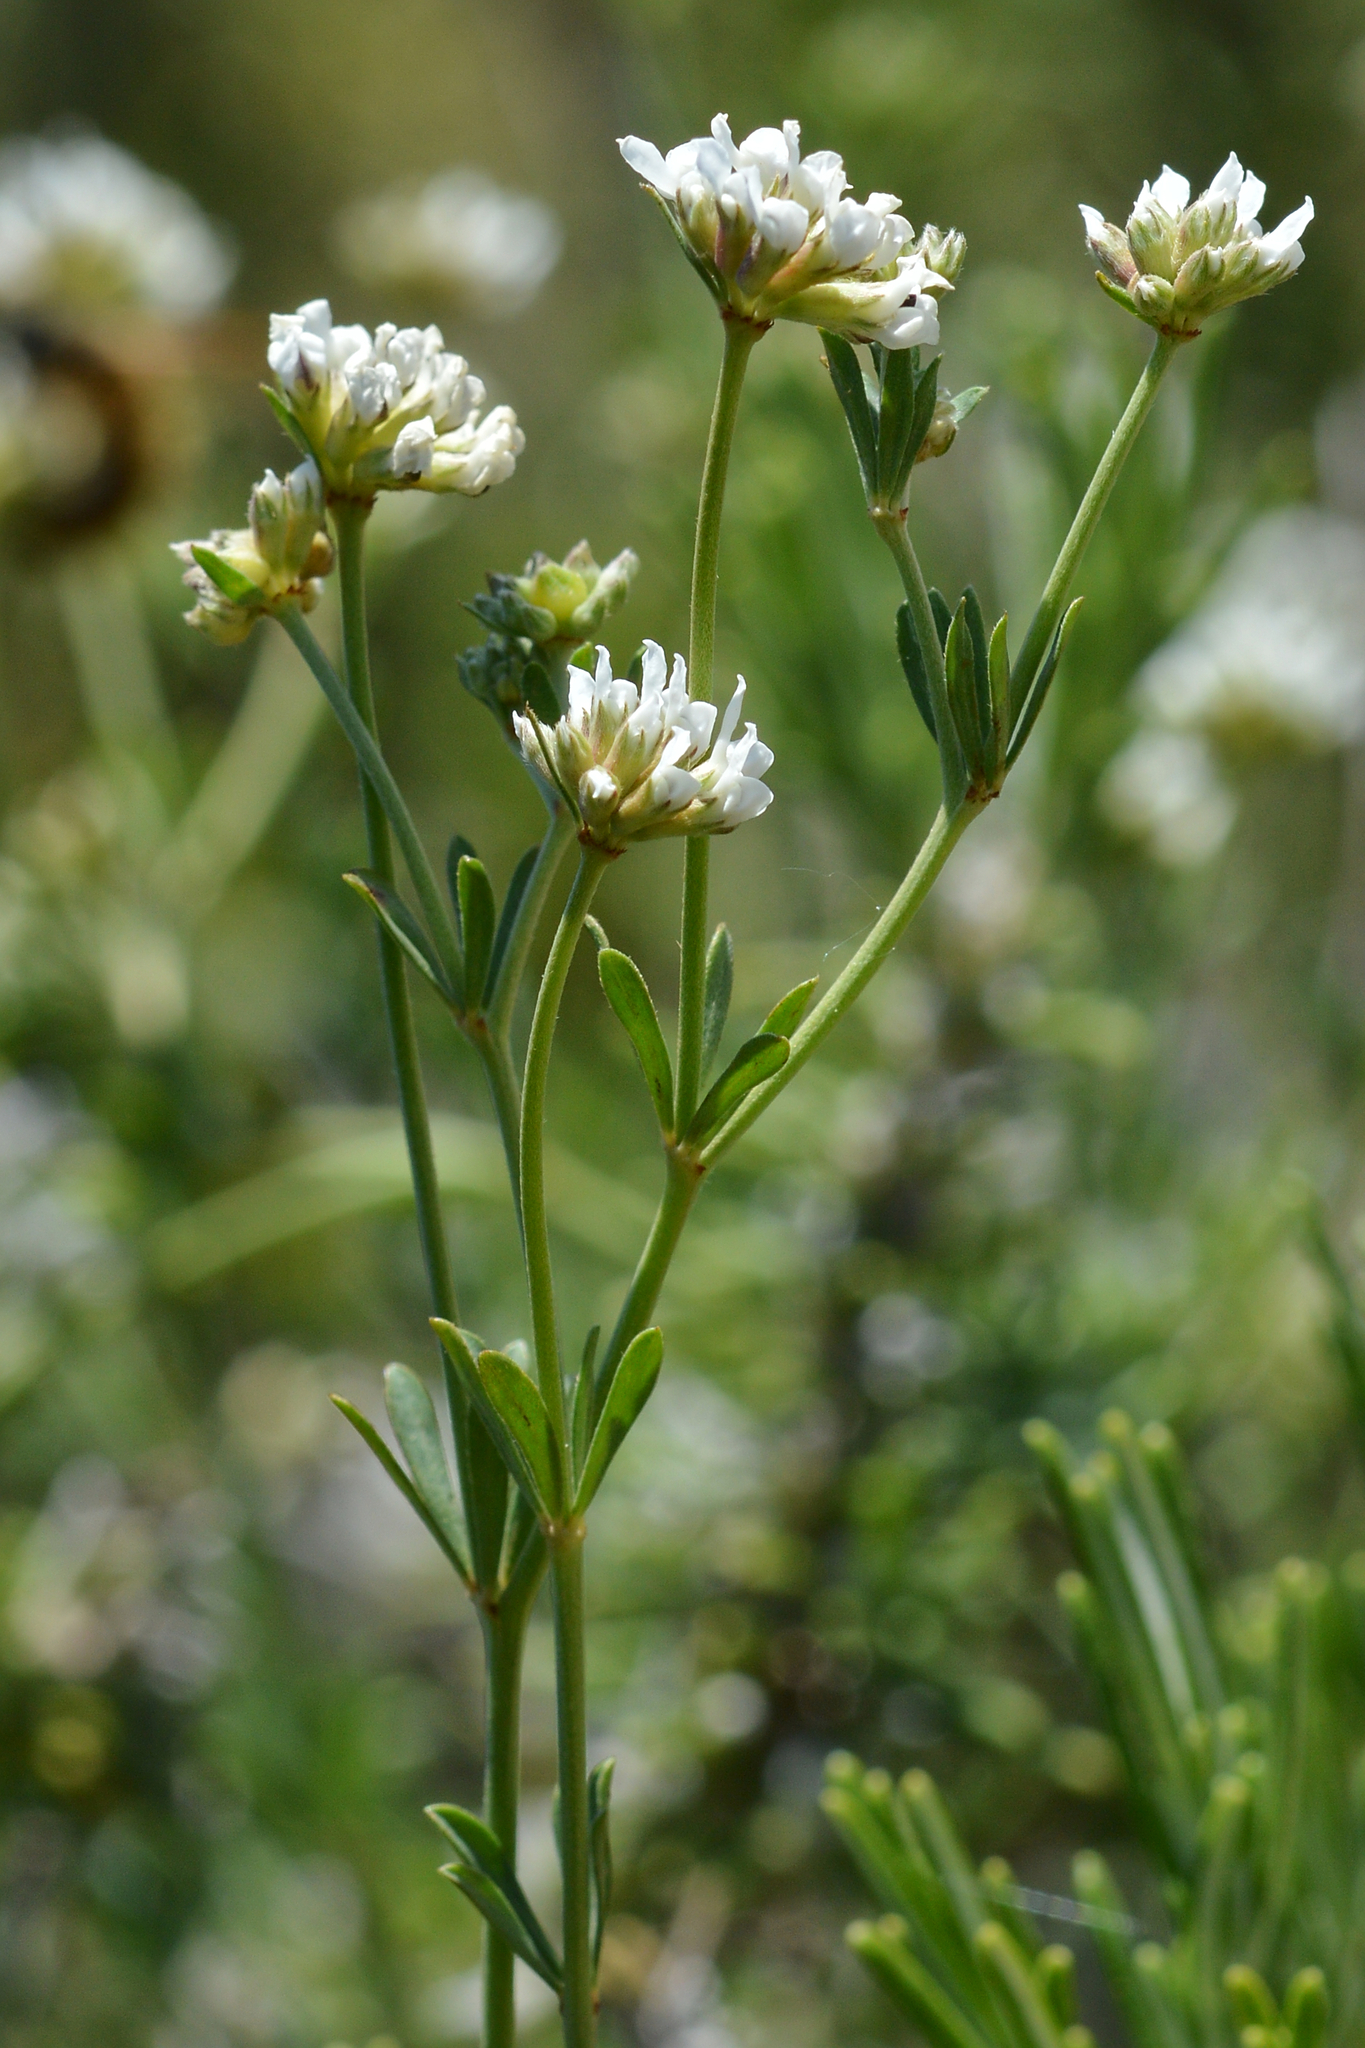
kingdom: Plantae
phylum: Tracheophyta
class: Magnoliopsida
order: Fabales
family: Fabaceae
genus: Lotus
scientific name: Lotus dorycnium
